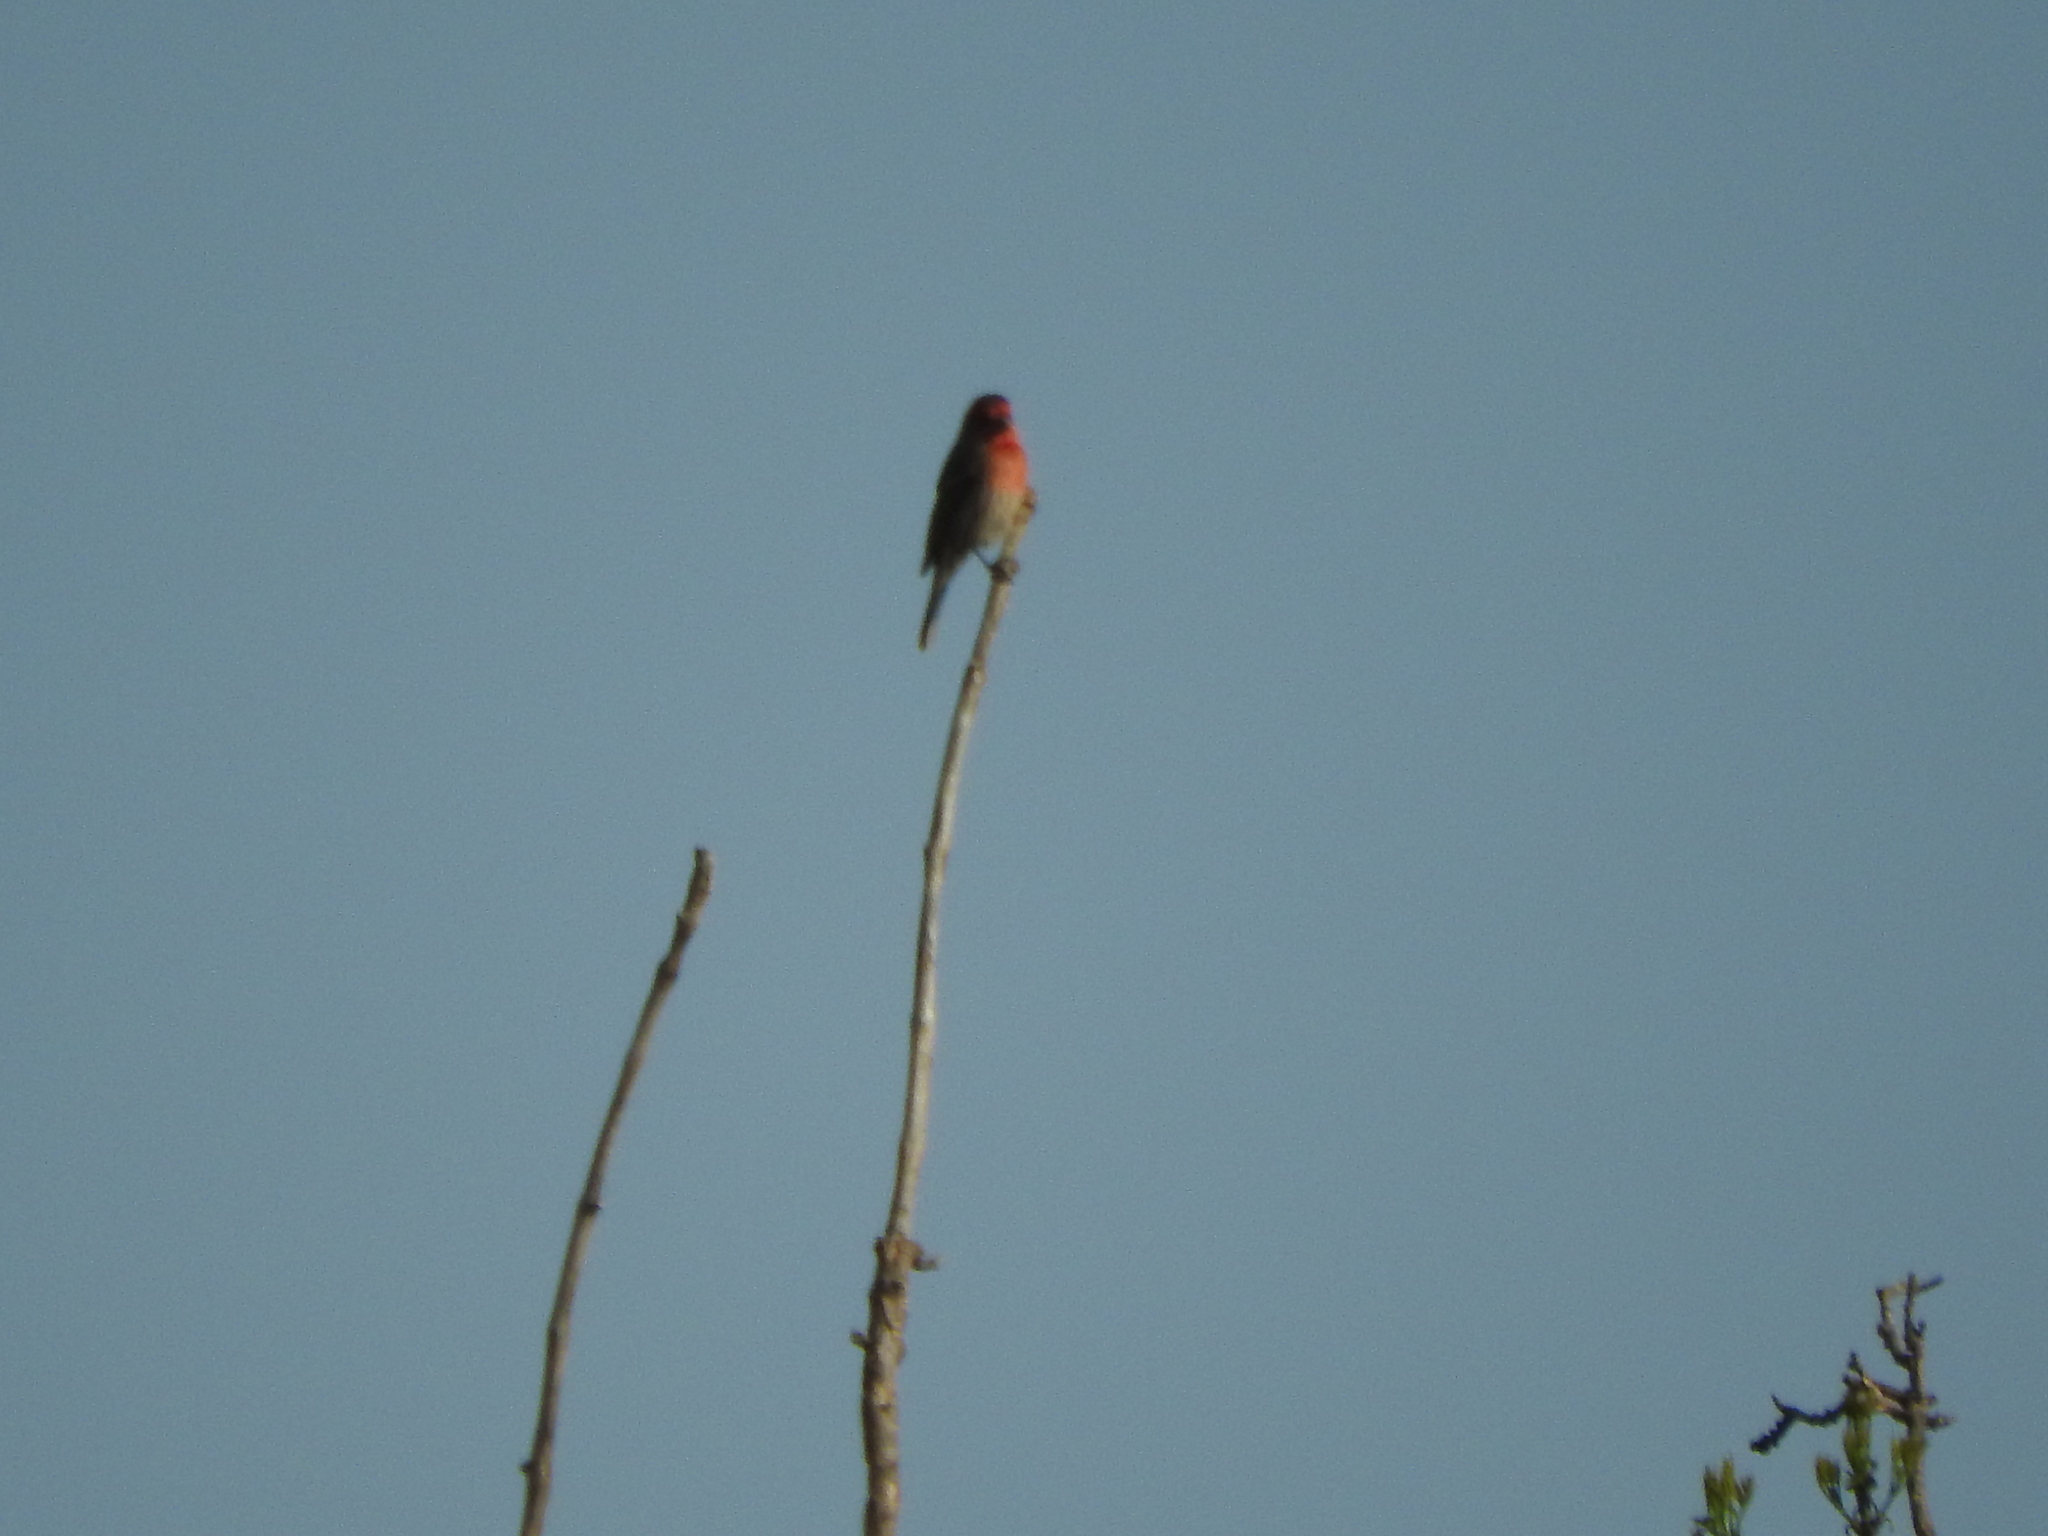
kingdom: Animalia
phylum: Chordata
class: Aves
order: Passeriformes
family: Fringillidae
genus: Haemorhous
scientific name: Haemorhous mexicanus
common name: House finch
